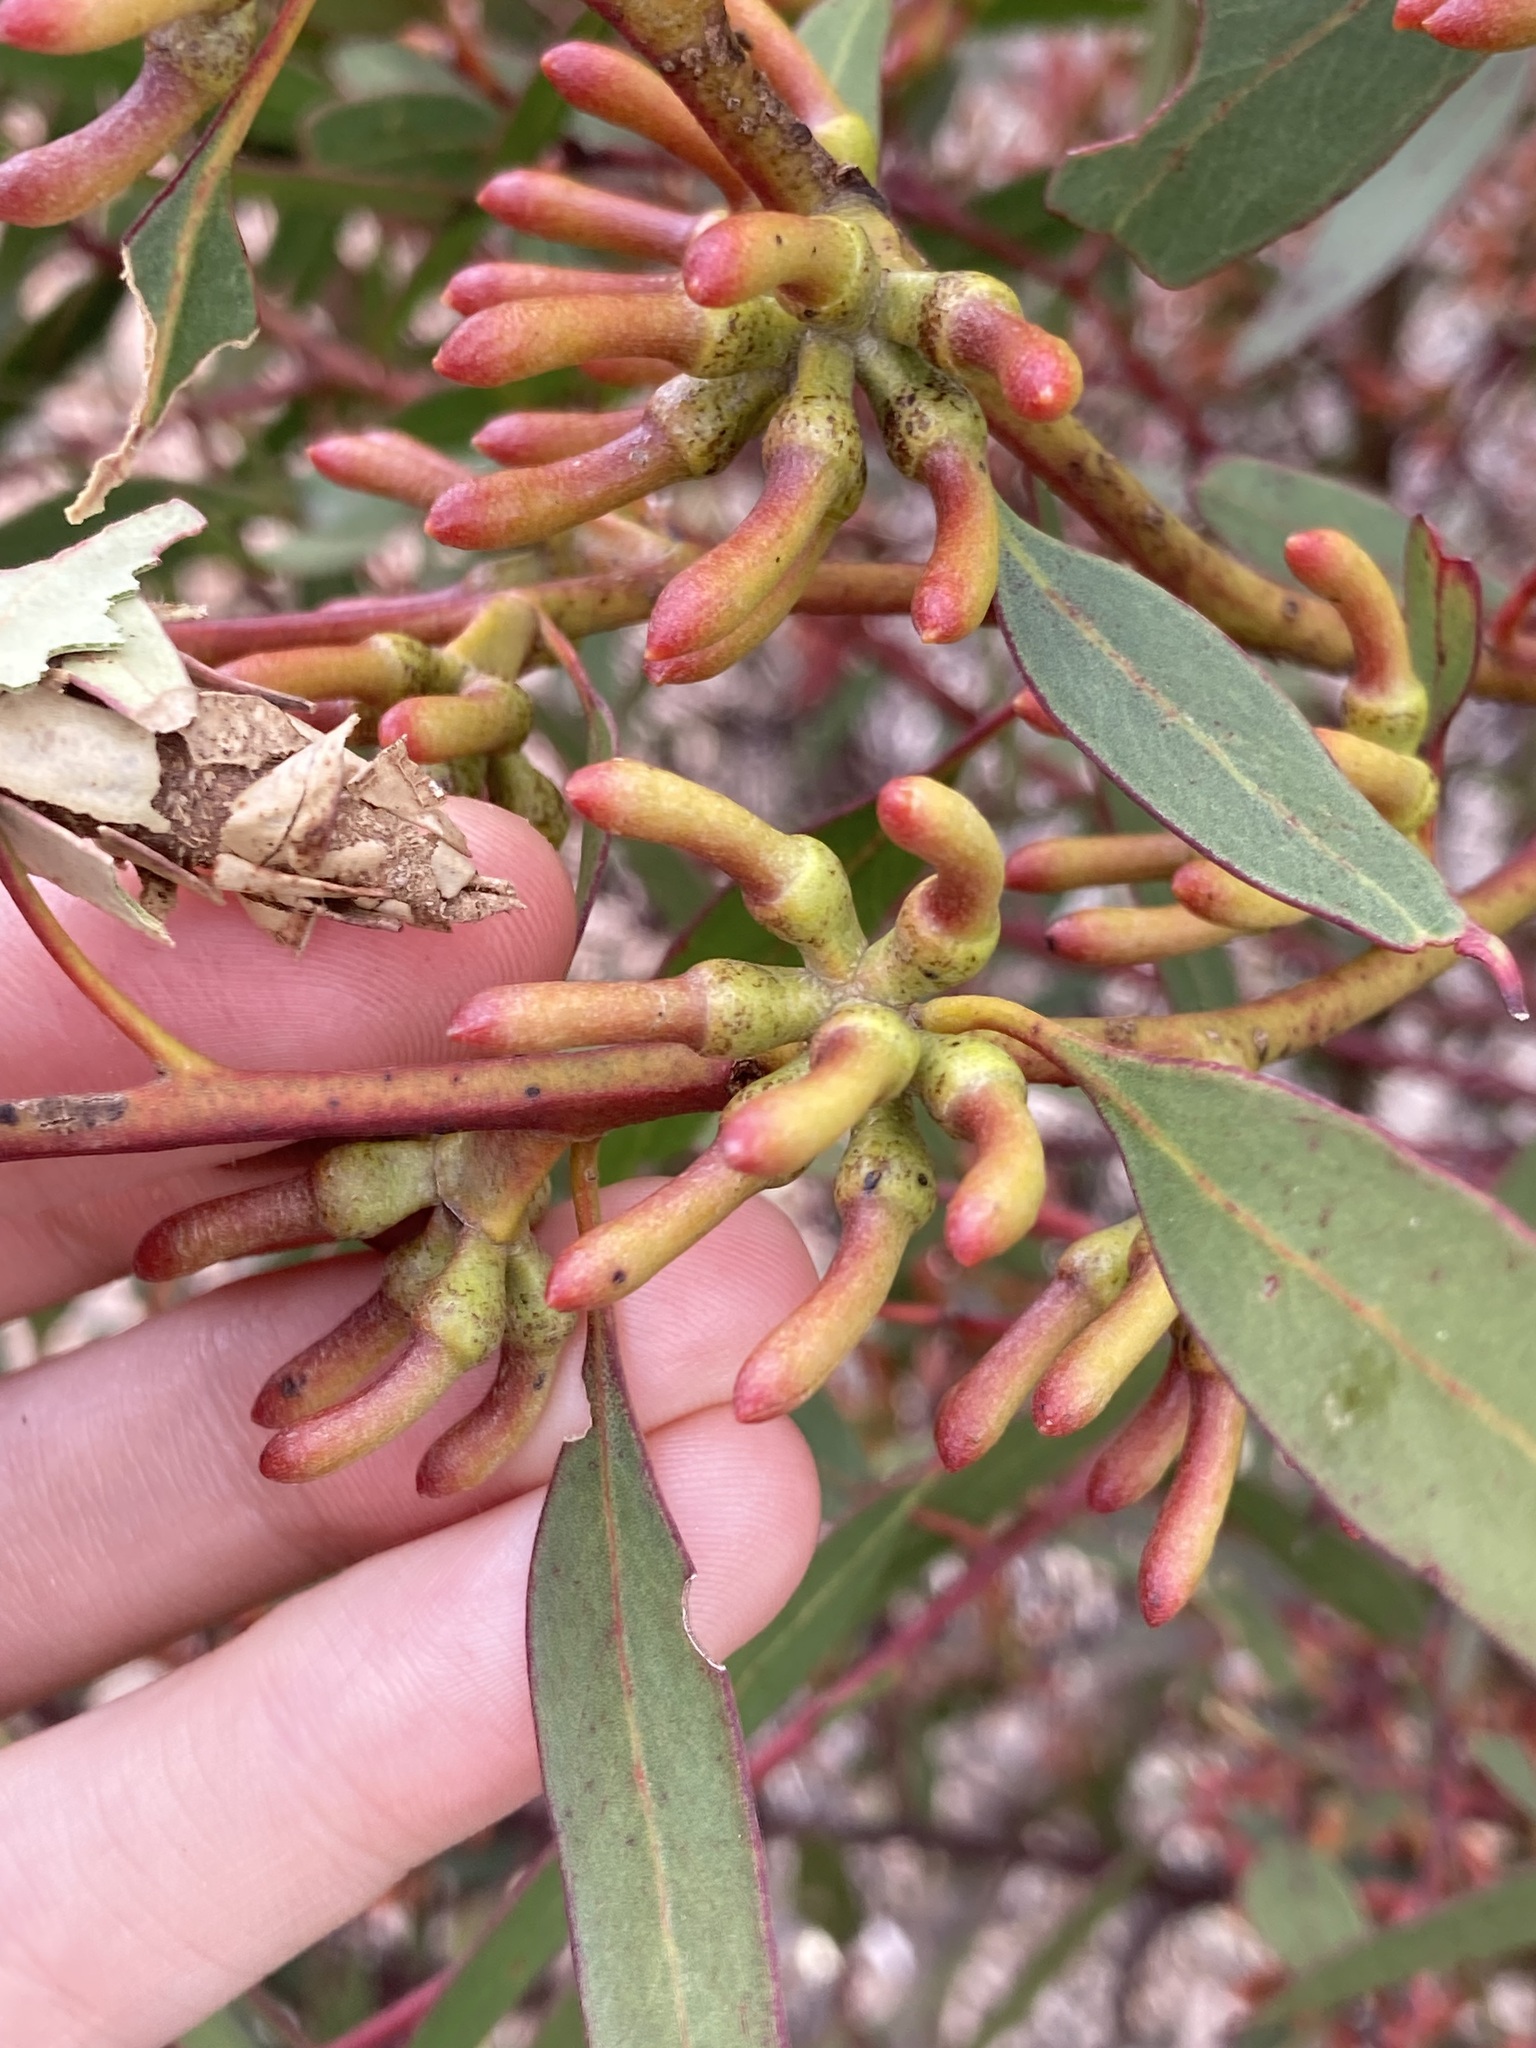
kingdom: Plantae
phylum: Tracheophyta
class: Magnoliopsida
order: Myrtales
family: Myrtaceae
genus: Eucalyptus
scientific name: Eucalyptus annulata
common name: Open-fruited mallee
